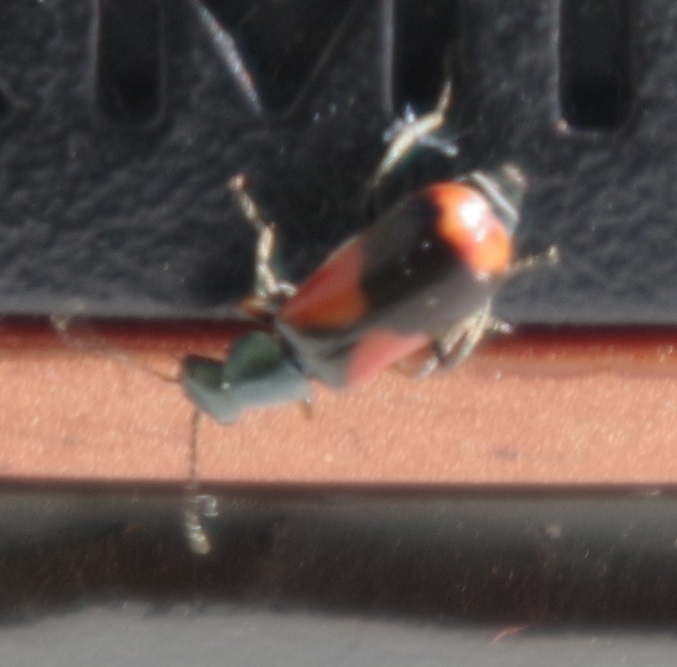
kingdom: Animalia
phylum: Arthropoda
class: Insecta
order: Coleoptera
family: Melyridae
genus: Anthocomus
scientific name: Anthocomus equestris
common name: Black-banded soft-winged flower beetle
